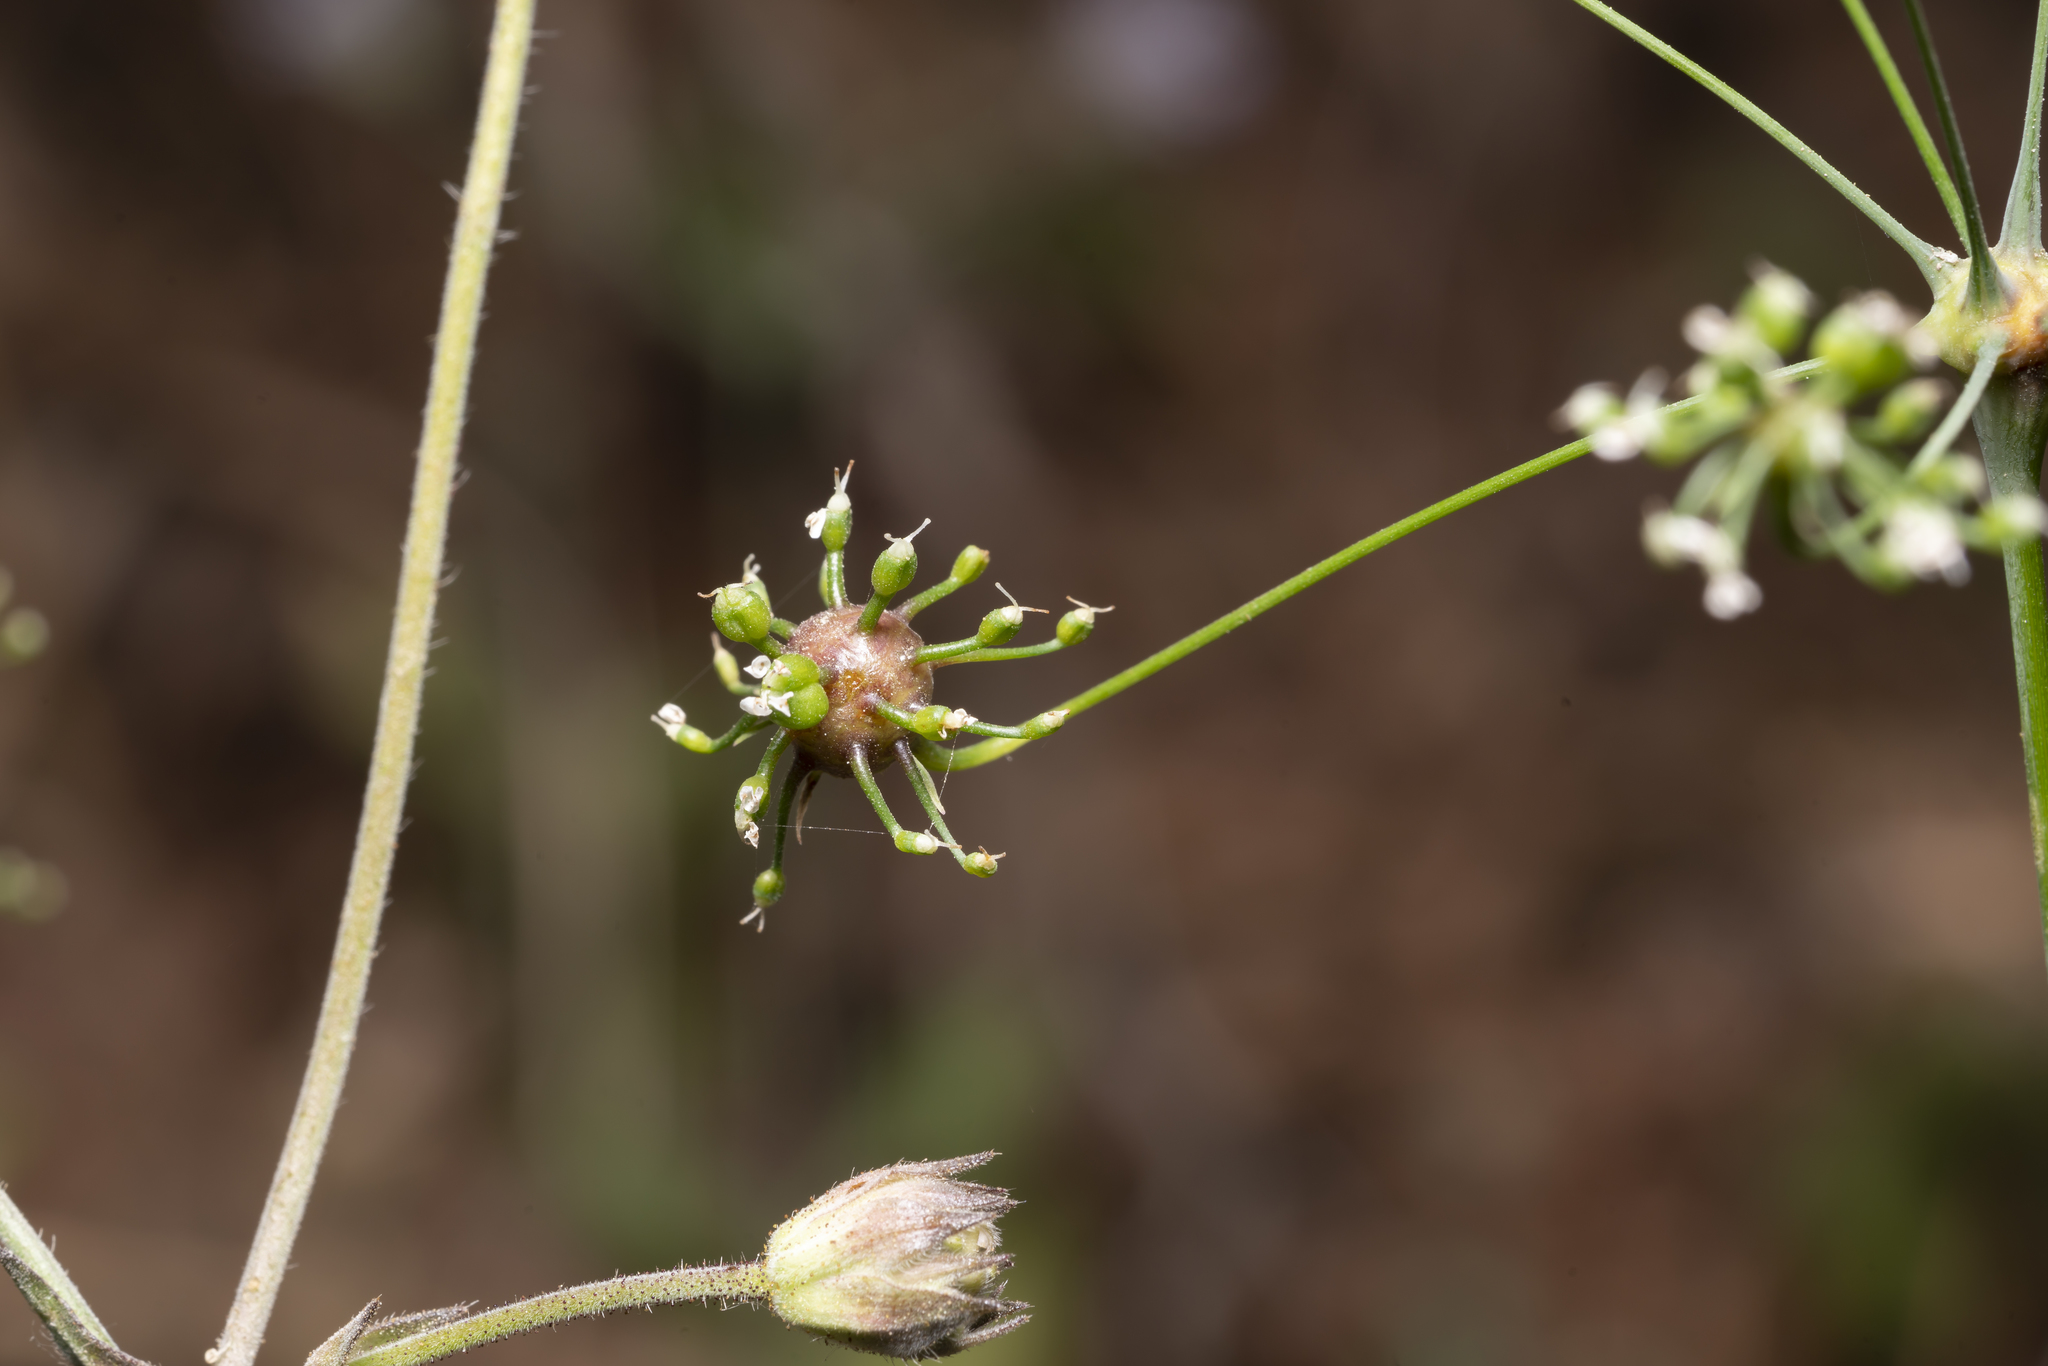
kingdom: Animalia
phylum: Arthropoda
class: Insecta
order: Diptera
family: Cecidomyiidae
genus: Lasioptera
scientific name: Lasioptera carophila
